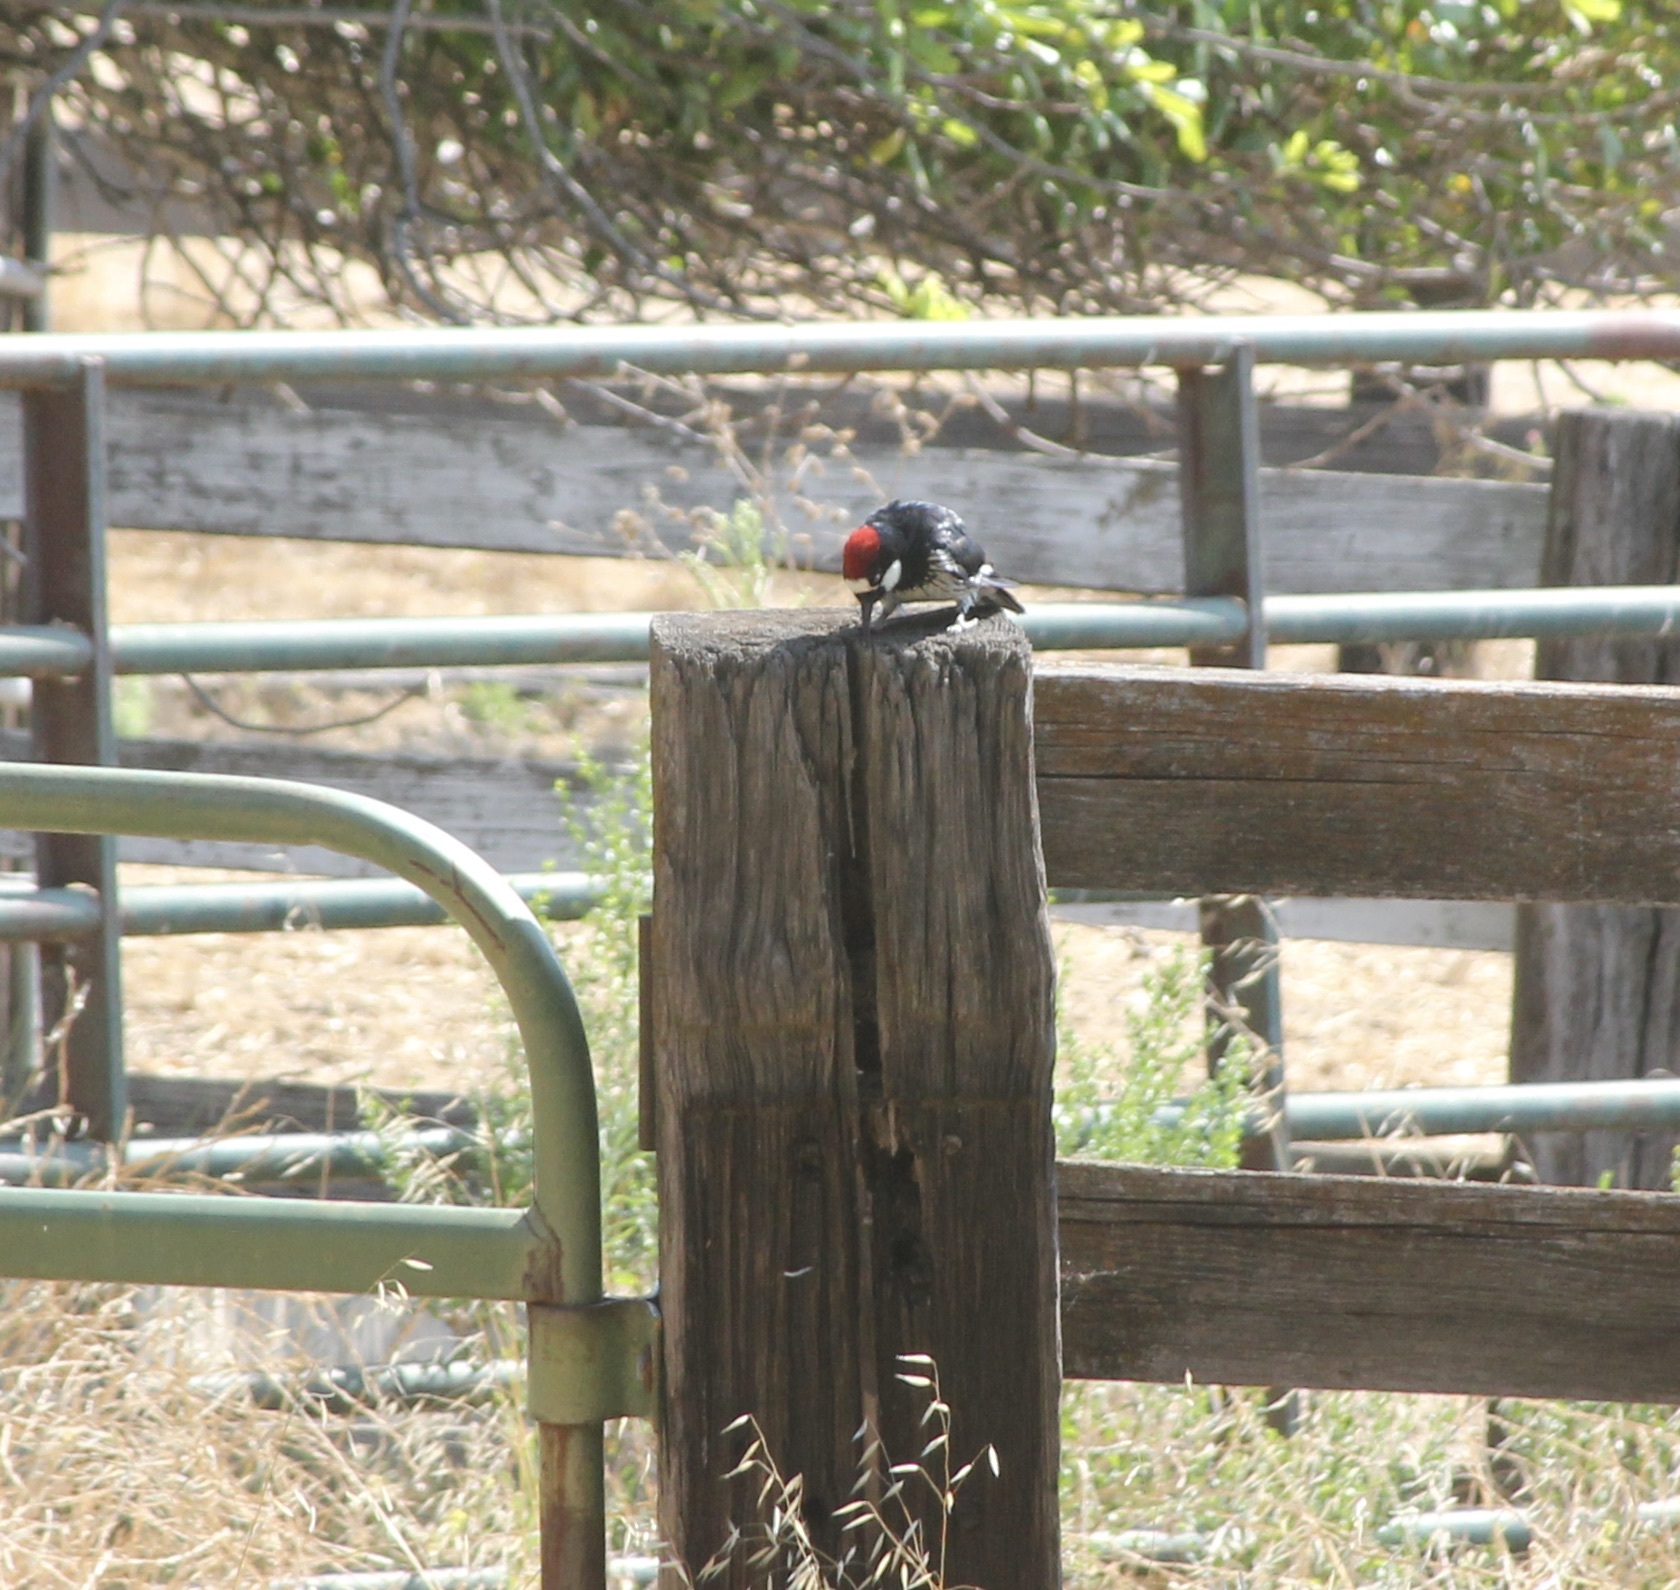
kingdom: Animalia
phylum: Chordata
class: Aves
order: Piciformes
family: Picidae
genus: Melanerpes
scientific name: Melanerpes formicivorus
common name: Acorn woodpecker
